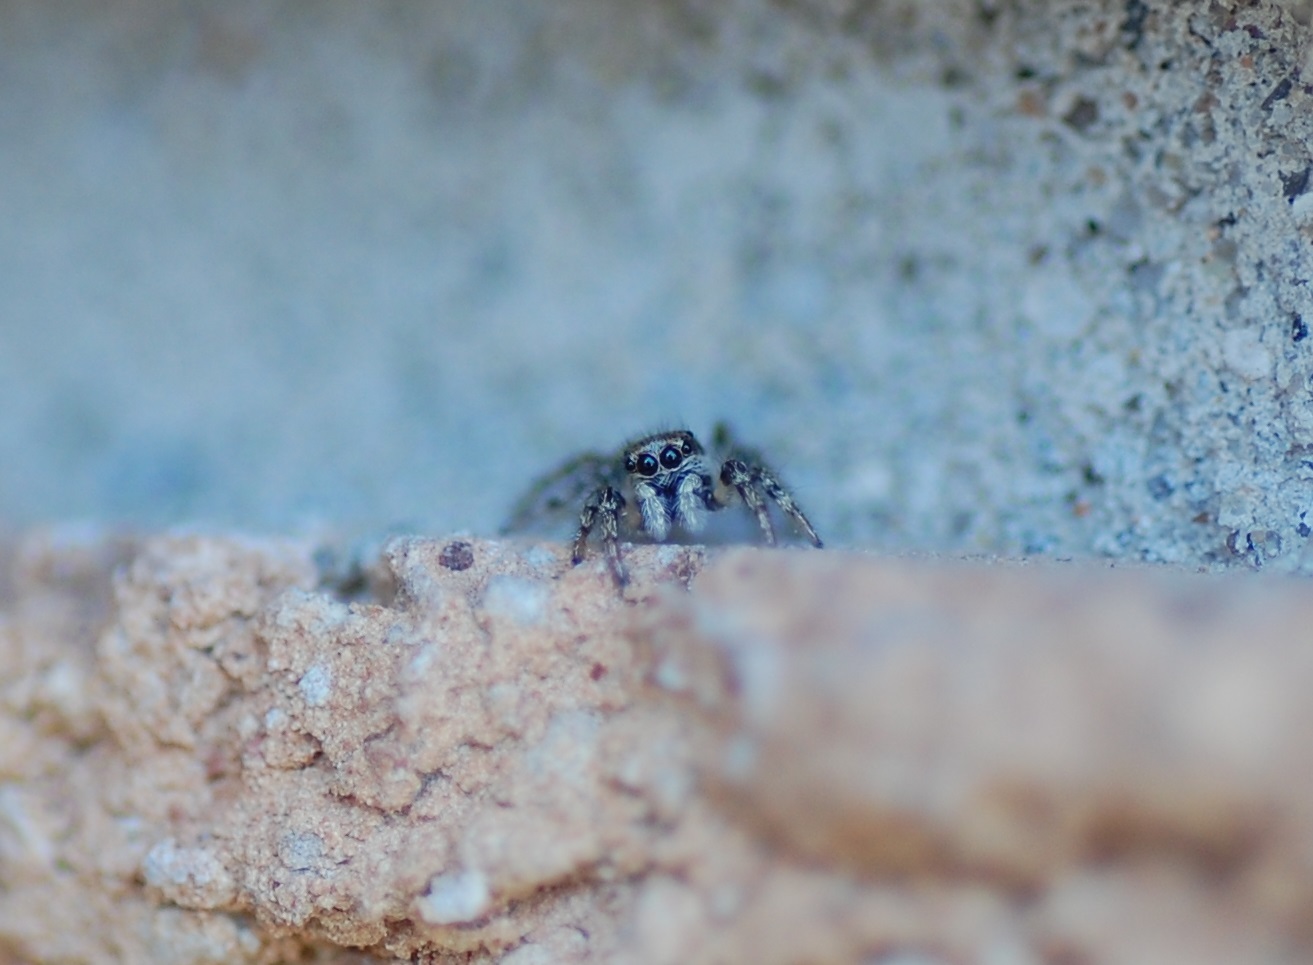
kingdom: Animalia
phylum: Arthropoda
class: Arachnida
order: Araneae
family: Salticidae
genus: Salticus
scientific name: Salticus scenicus
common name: Zebra jumper
